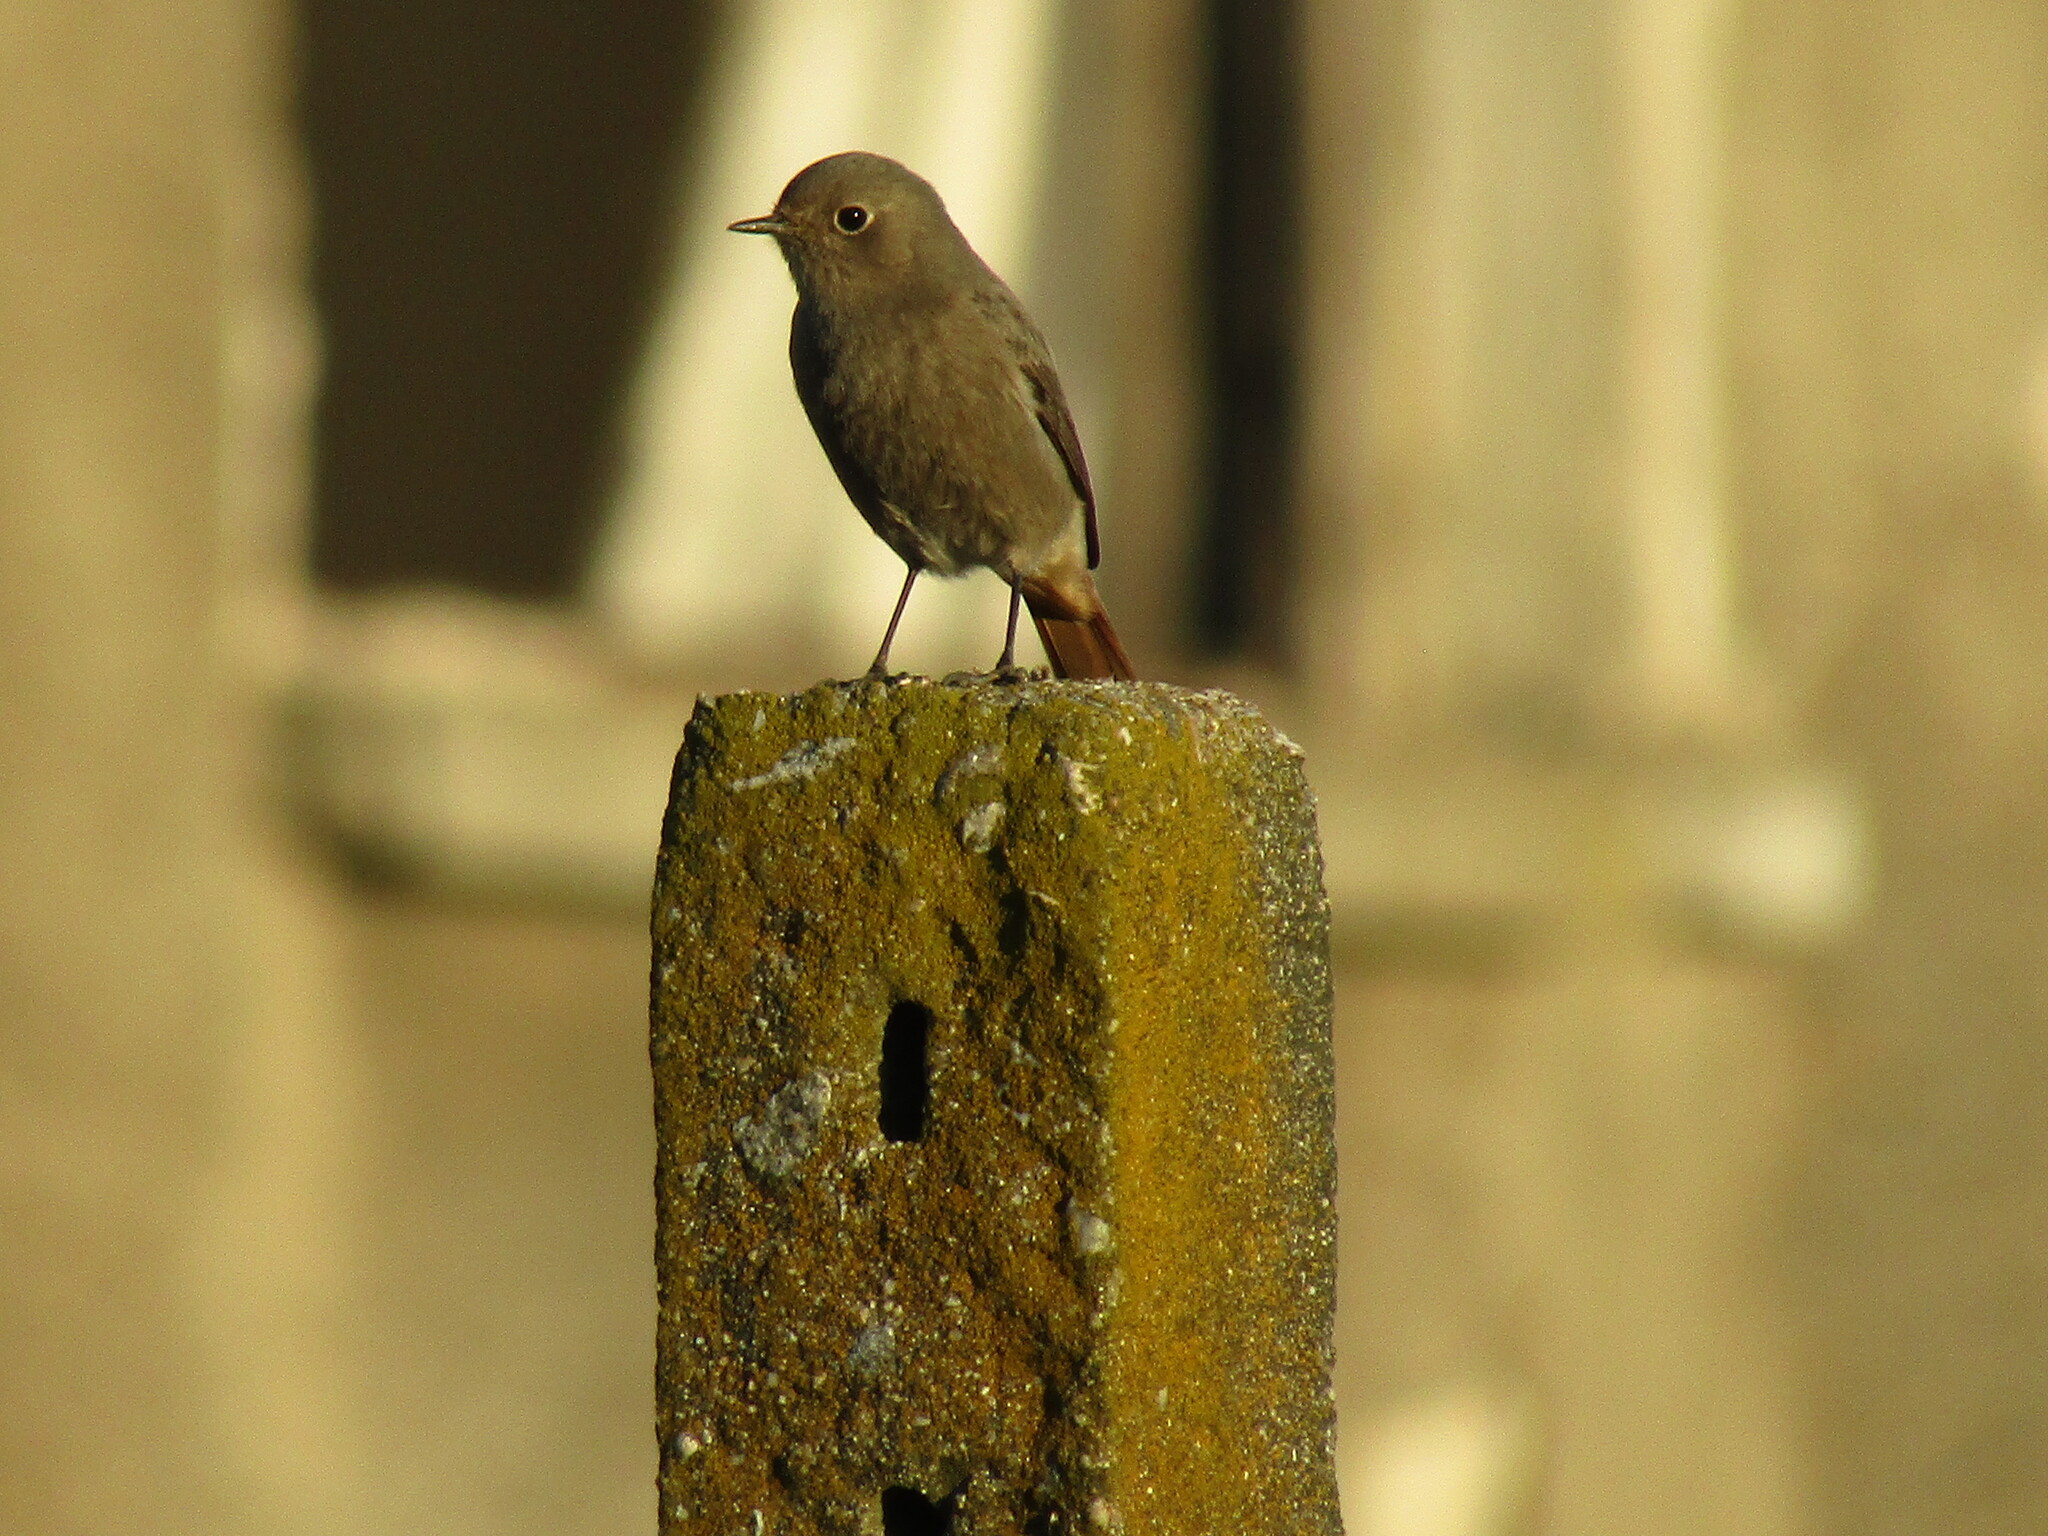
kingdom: Animalia
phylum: Chordata
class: Aves
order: Passeriformes
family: Muscicapidae
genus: Phoenicurus
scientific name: Phoenicurus ochruros
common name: Black redstart
